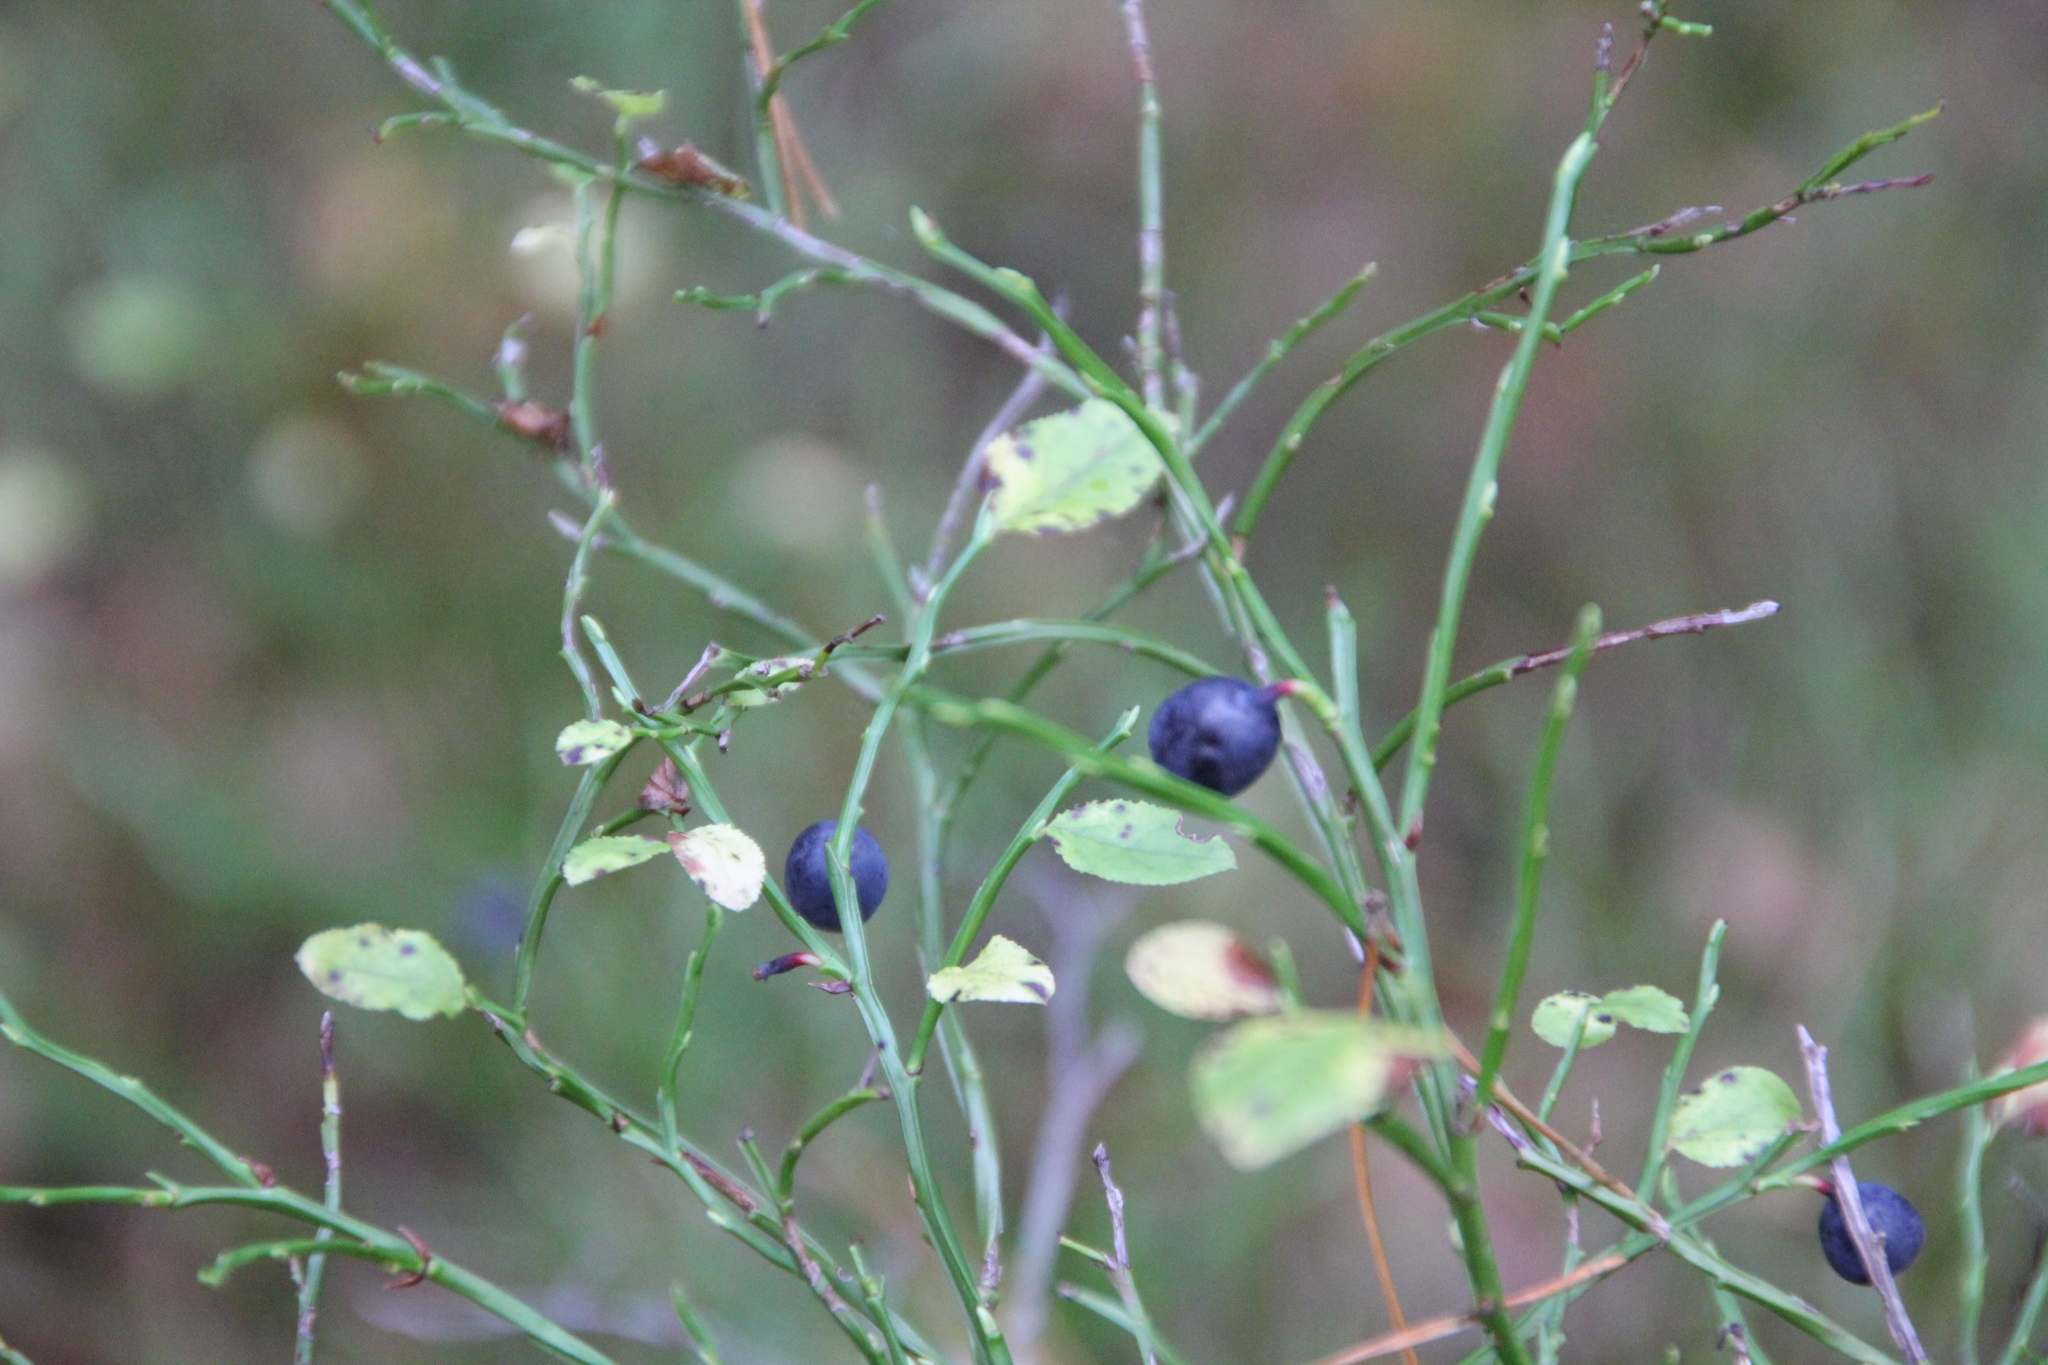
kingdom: Plantae
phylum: Tracheophyta
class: Magnoliopsida
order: Ericales
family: Ericaceae
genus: Vaccinium
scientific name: Vaccinium myrtillus
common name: Bilberry
